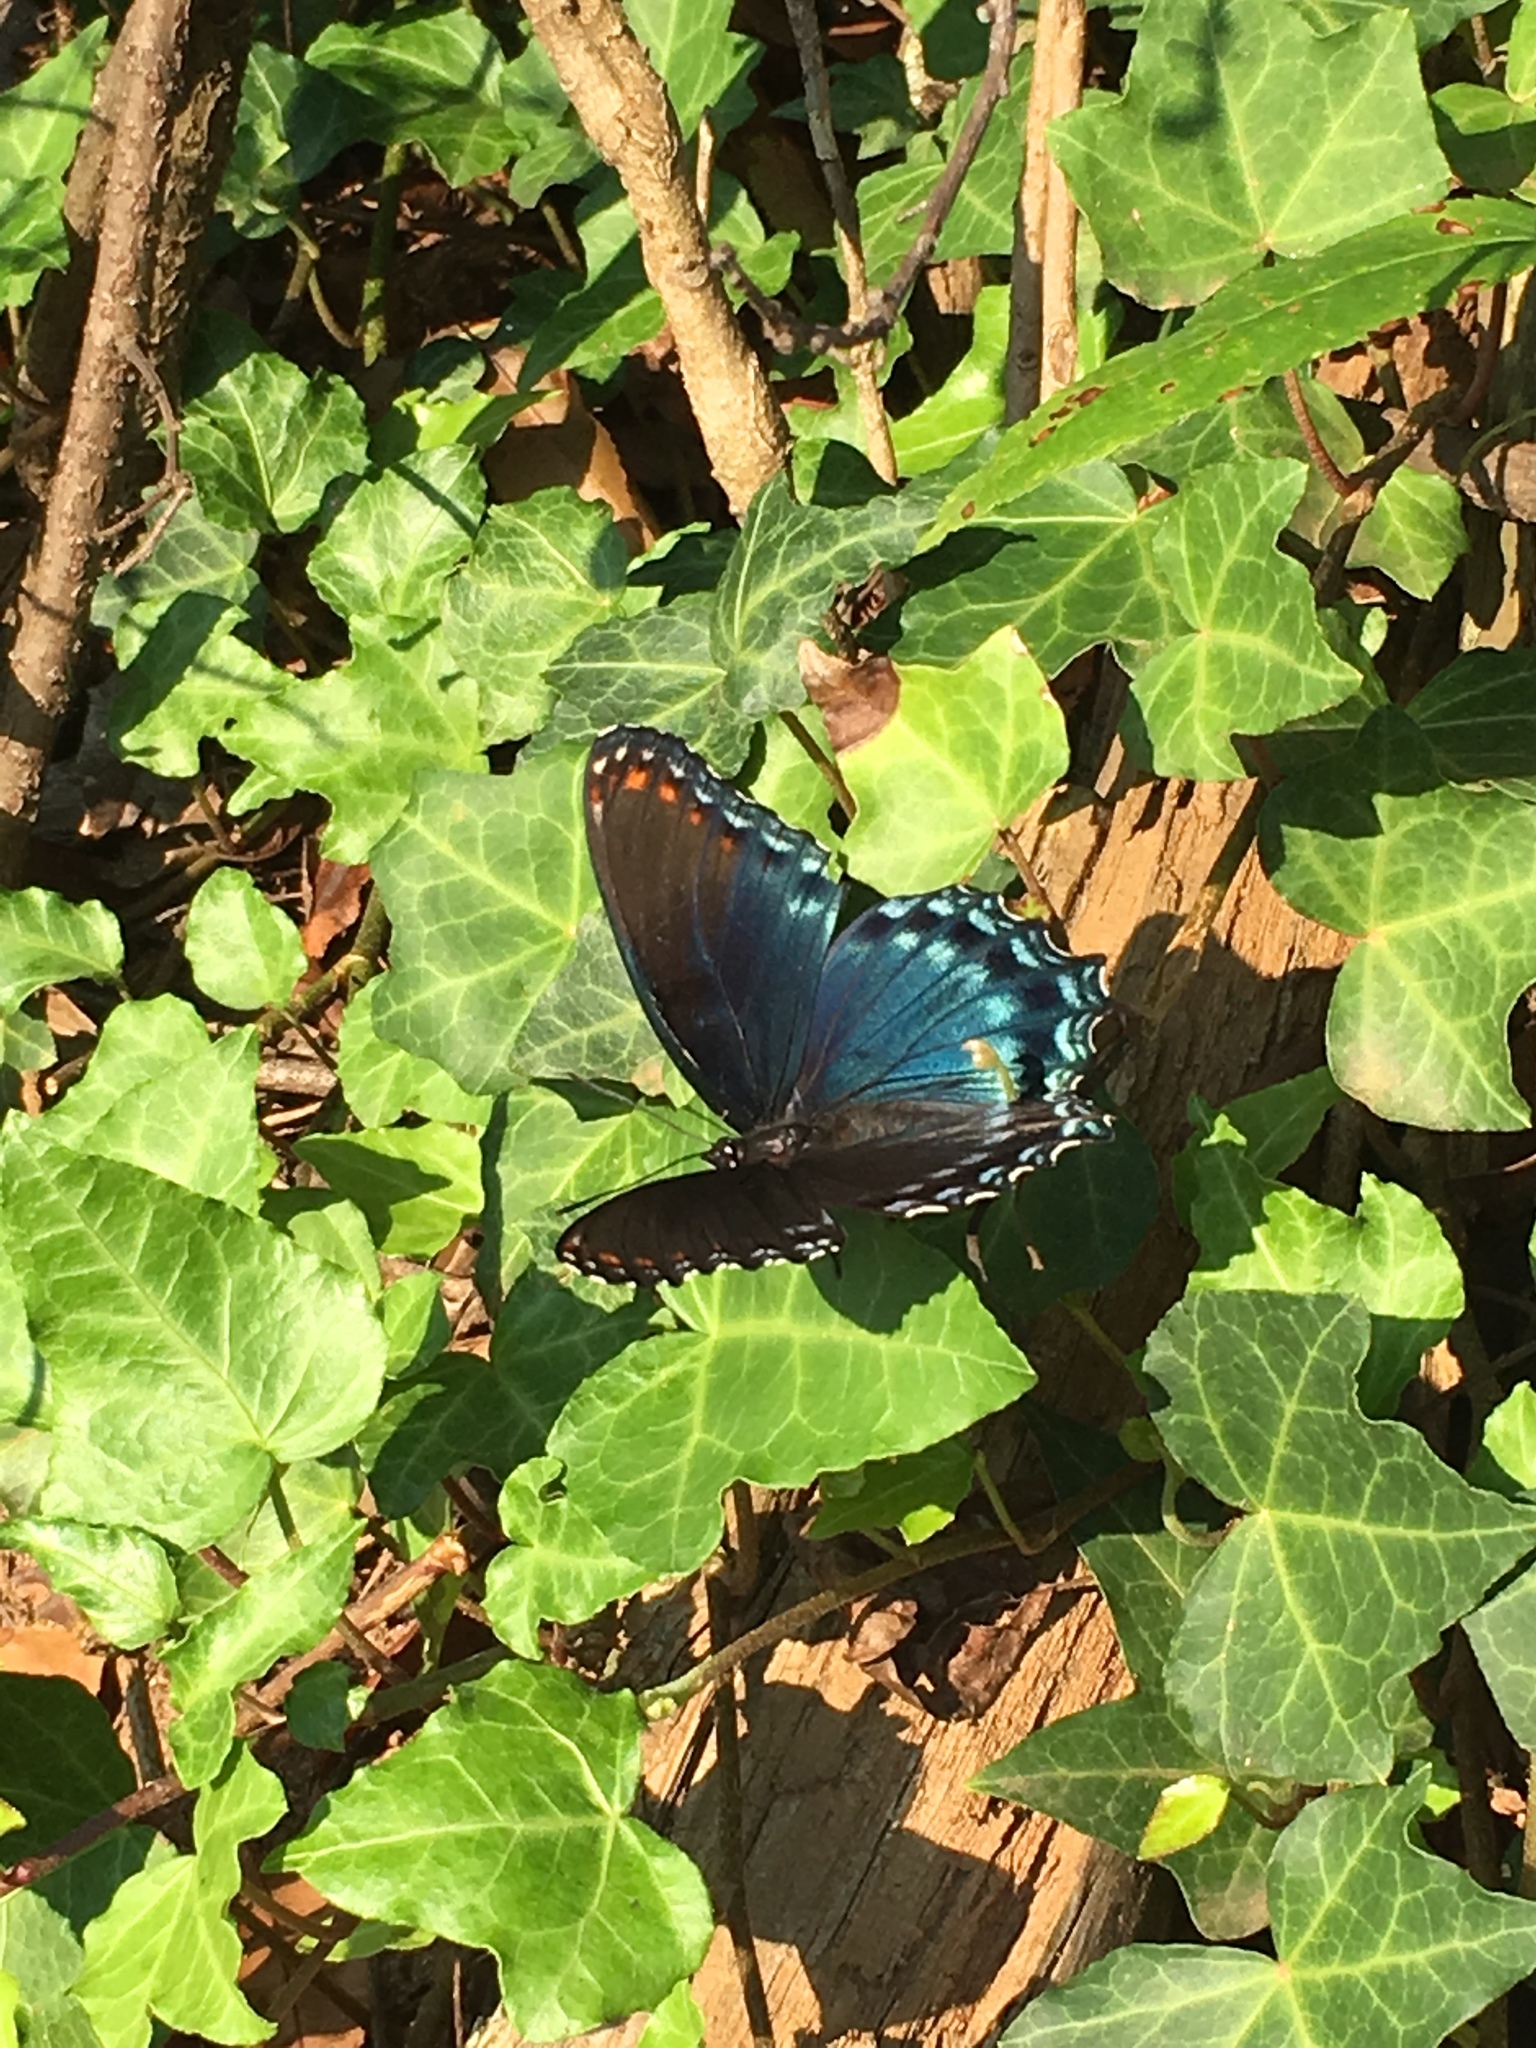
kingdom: Animalia
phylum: Arthropoda
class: Insecta
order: Lepidoptera
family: Nymphalidae
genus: Limenitis
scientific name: Limenitis astyanax
